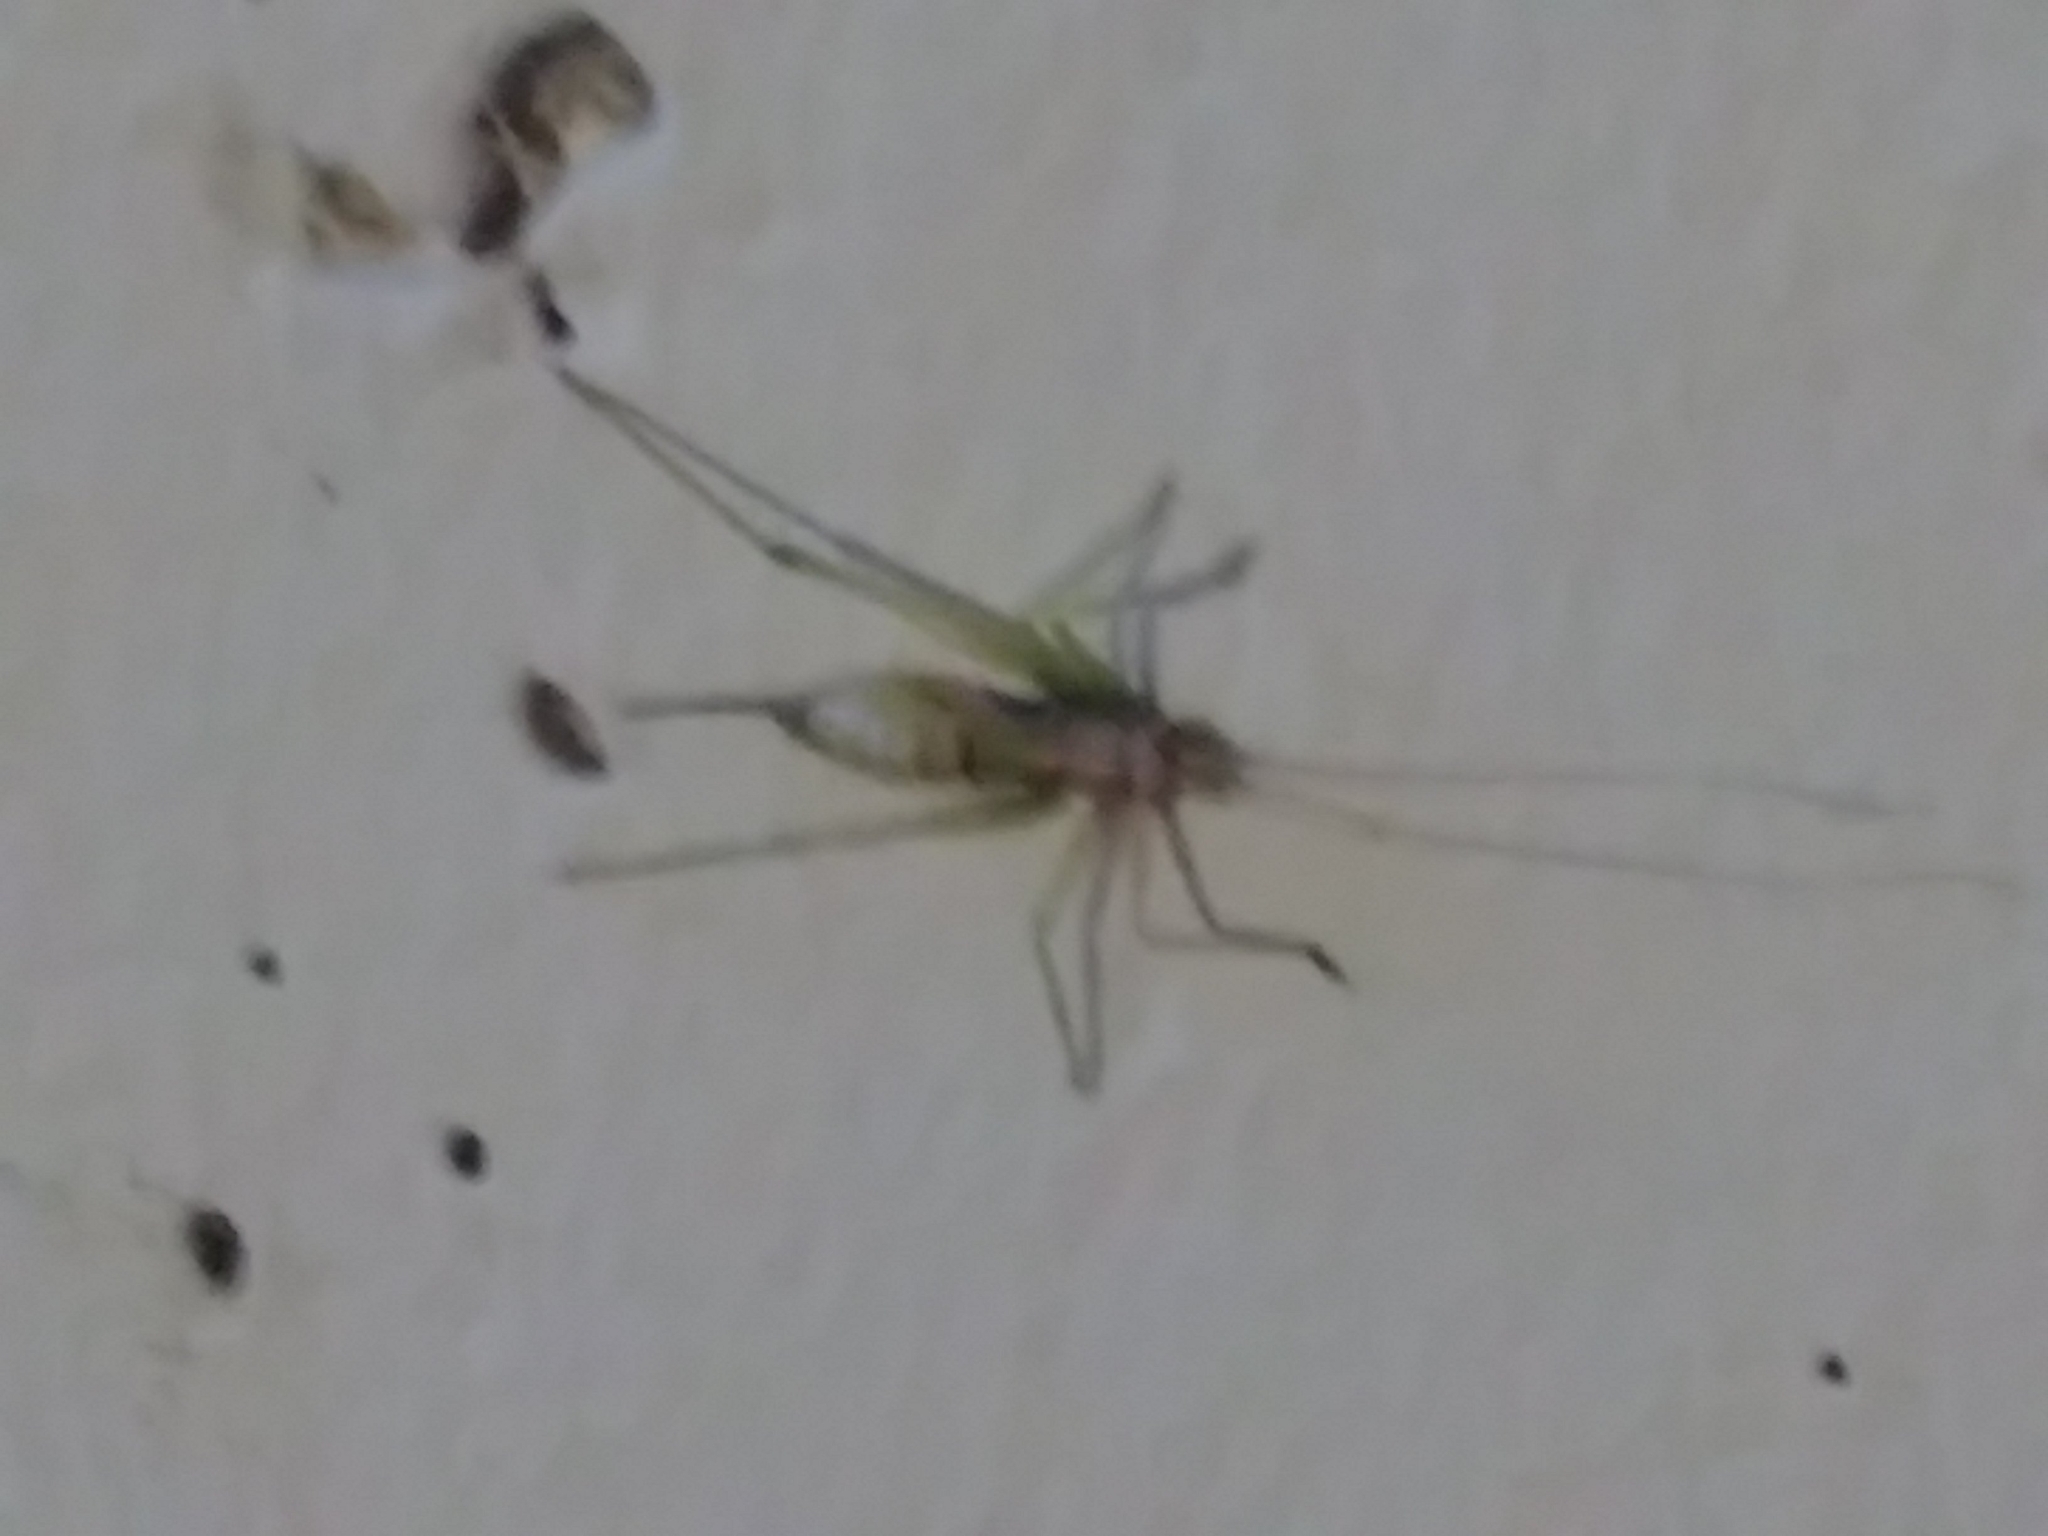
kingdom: Animalia
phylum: Arthropoda
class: Insecta
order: Orthoptera
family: Tettigoniidae
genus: Meconema
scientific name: Meconema meridionale
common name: Southern oak bush-cricket
